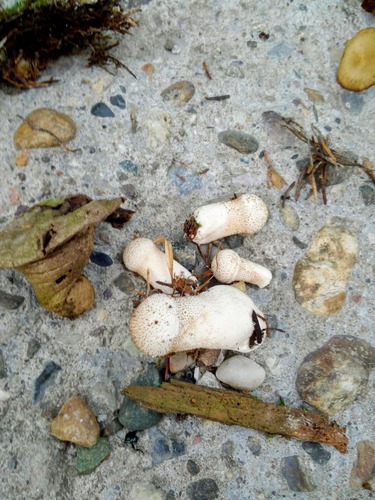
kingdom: Fungi
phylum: Basidiomycota
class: Agaricomycetes
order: Agaricales
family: Lycoperdaceae
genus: Lycoperdon
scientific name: Lycoperdon perlatum
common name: Common puffball
